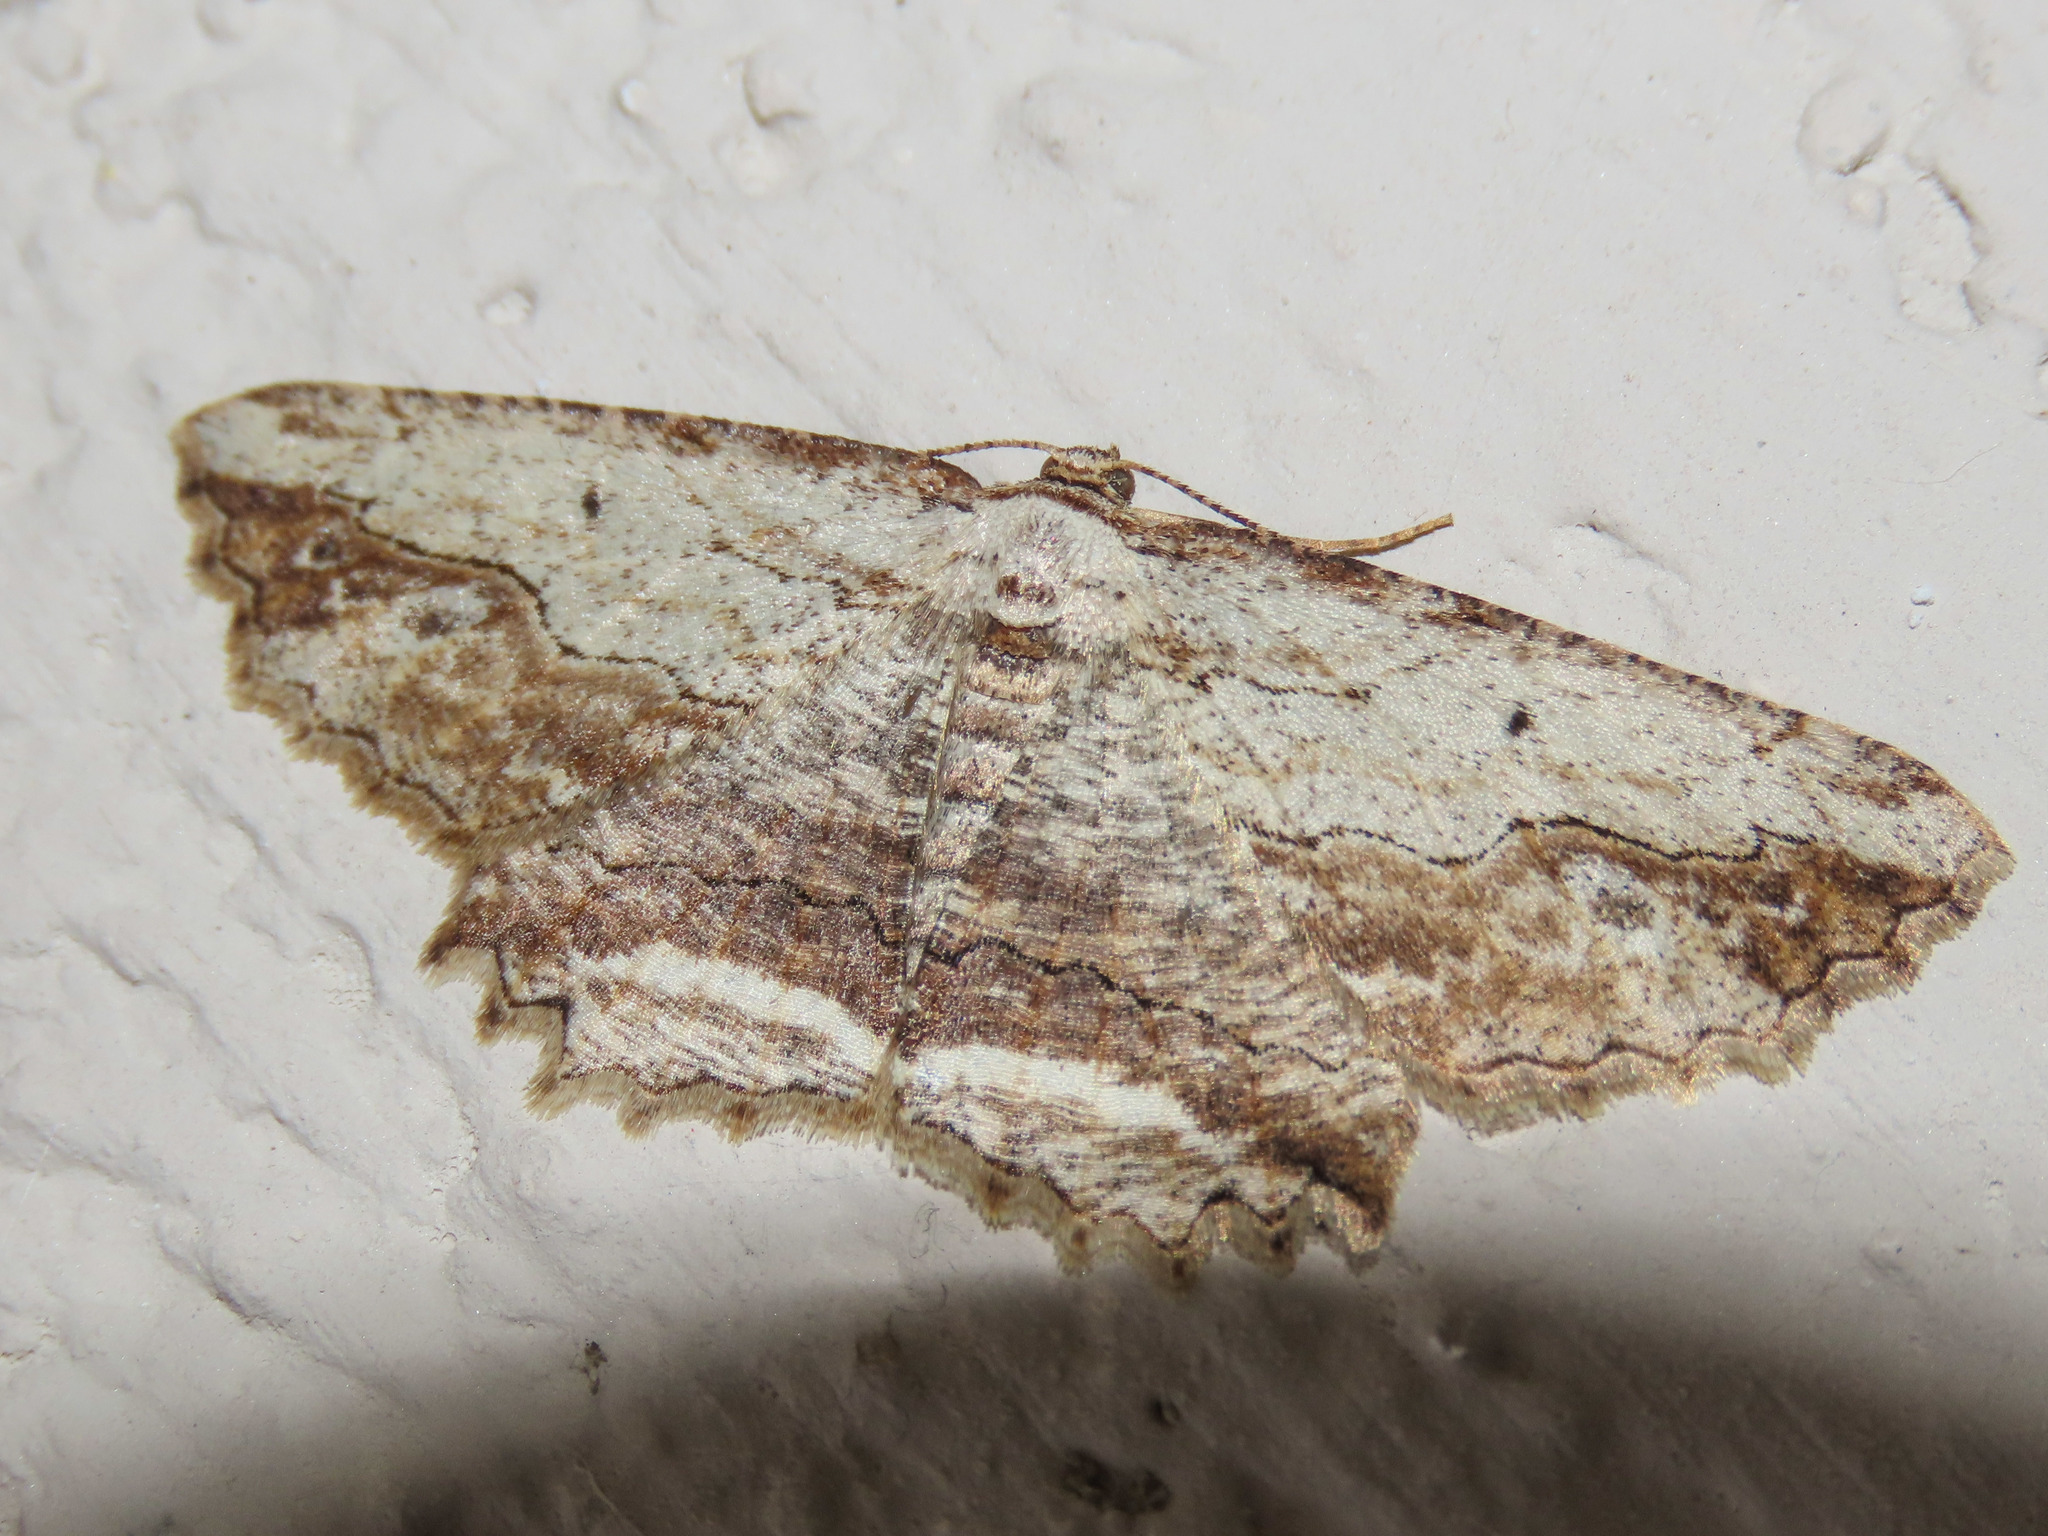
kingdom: Animalia
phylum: Arthropoda
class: Insecta
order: Lepidoptera
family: Geometridae
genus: Menophra
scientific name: Menophra abruptaria
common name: Waved umber
